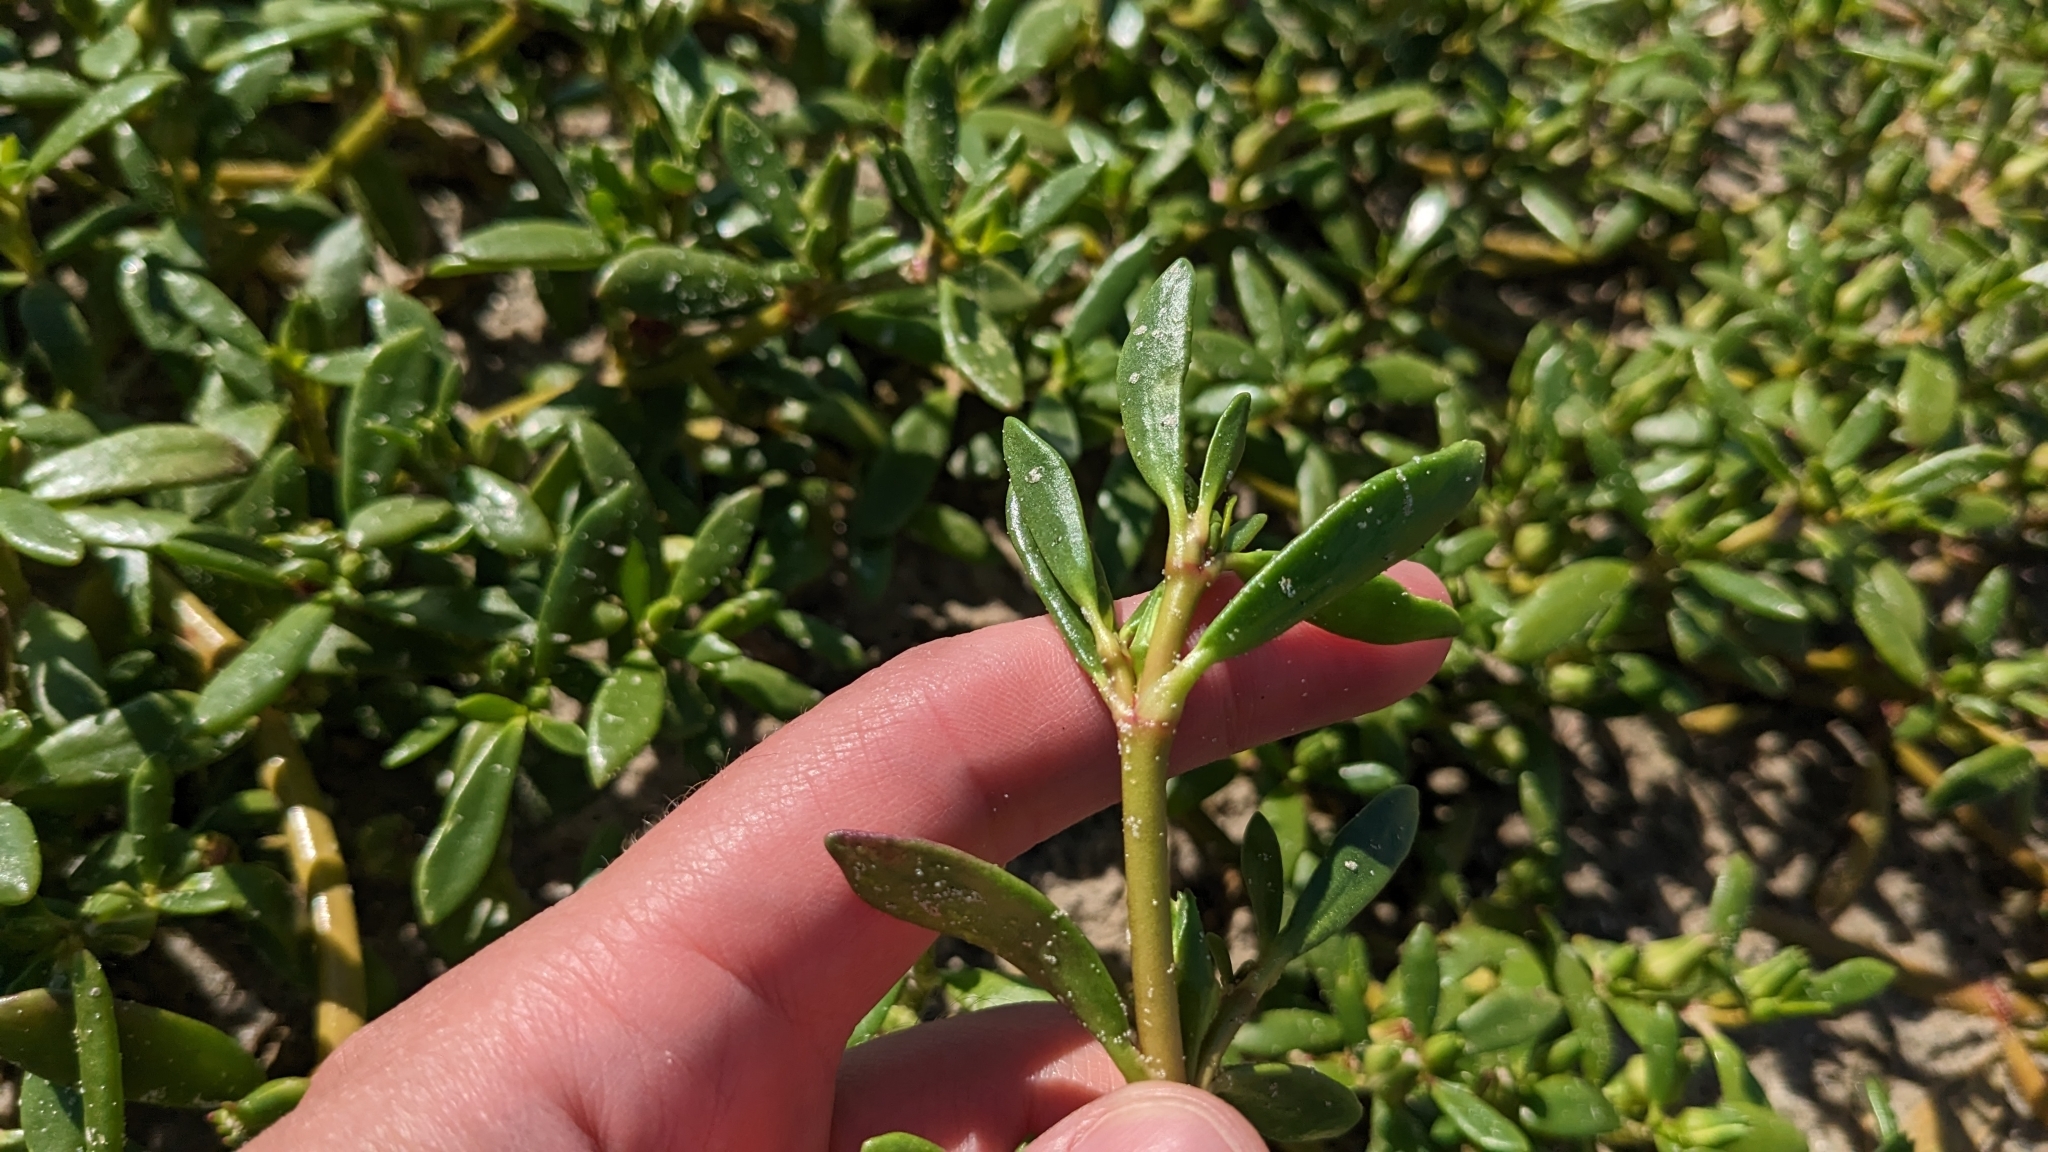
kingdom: Plantae
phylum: Tracheophyta
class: Magnoliopsida
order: Caryophyllales
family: Aizoaceae
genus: Sesuvium
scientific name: Sesuvium portulacastrum
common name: Sea-purslane
